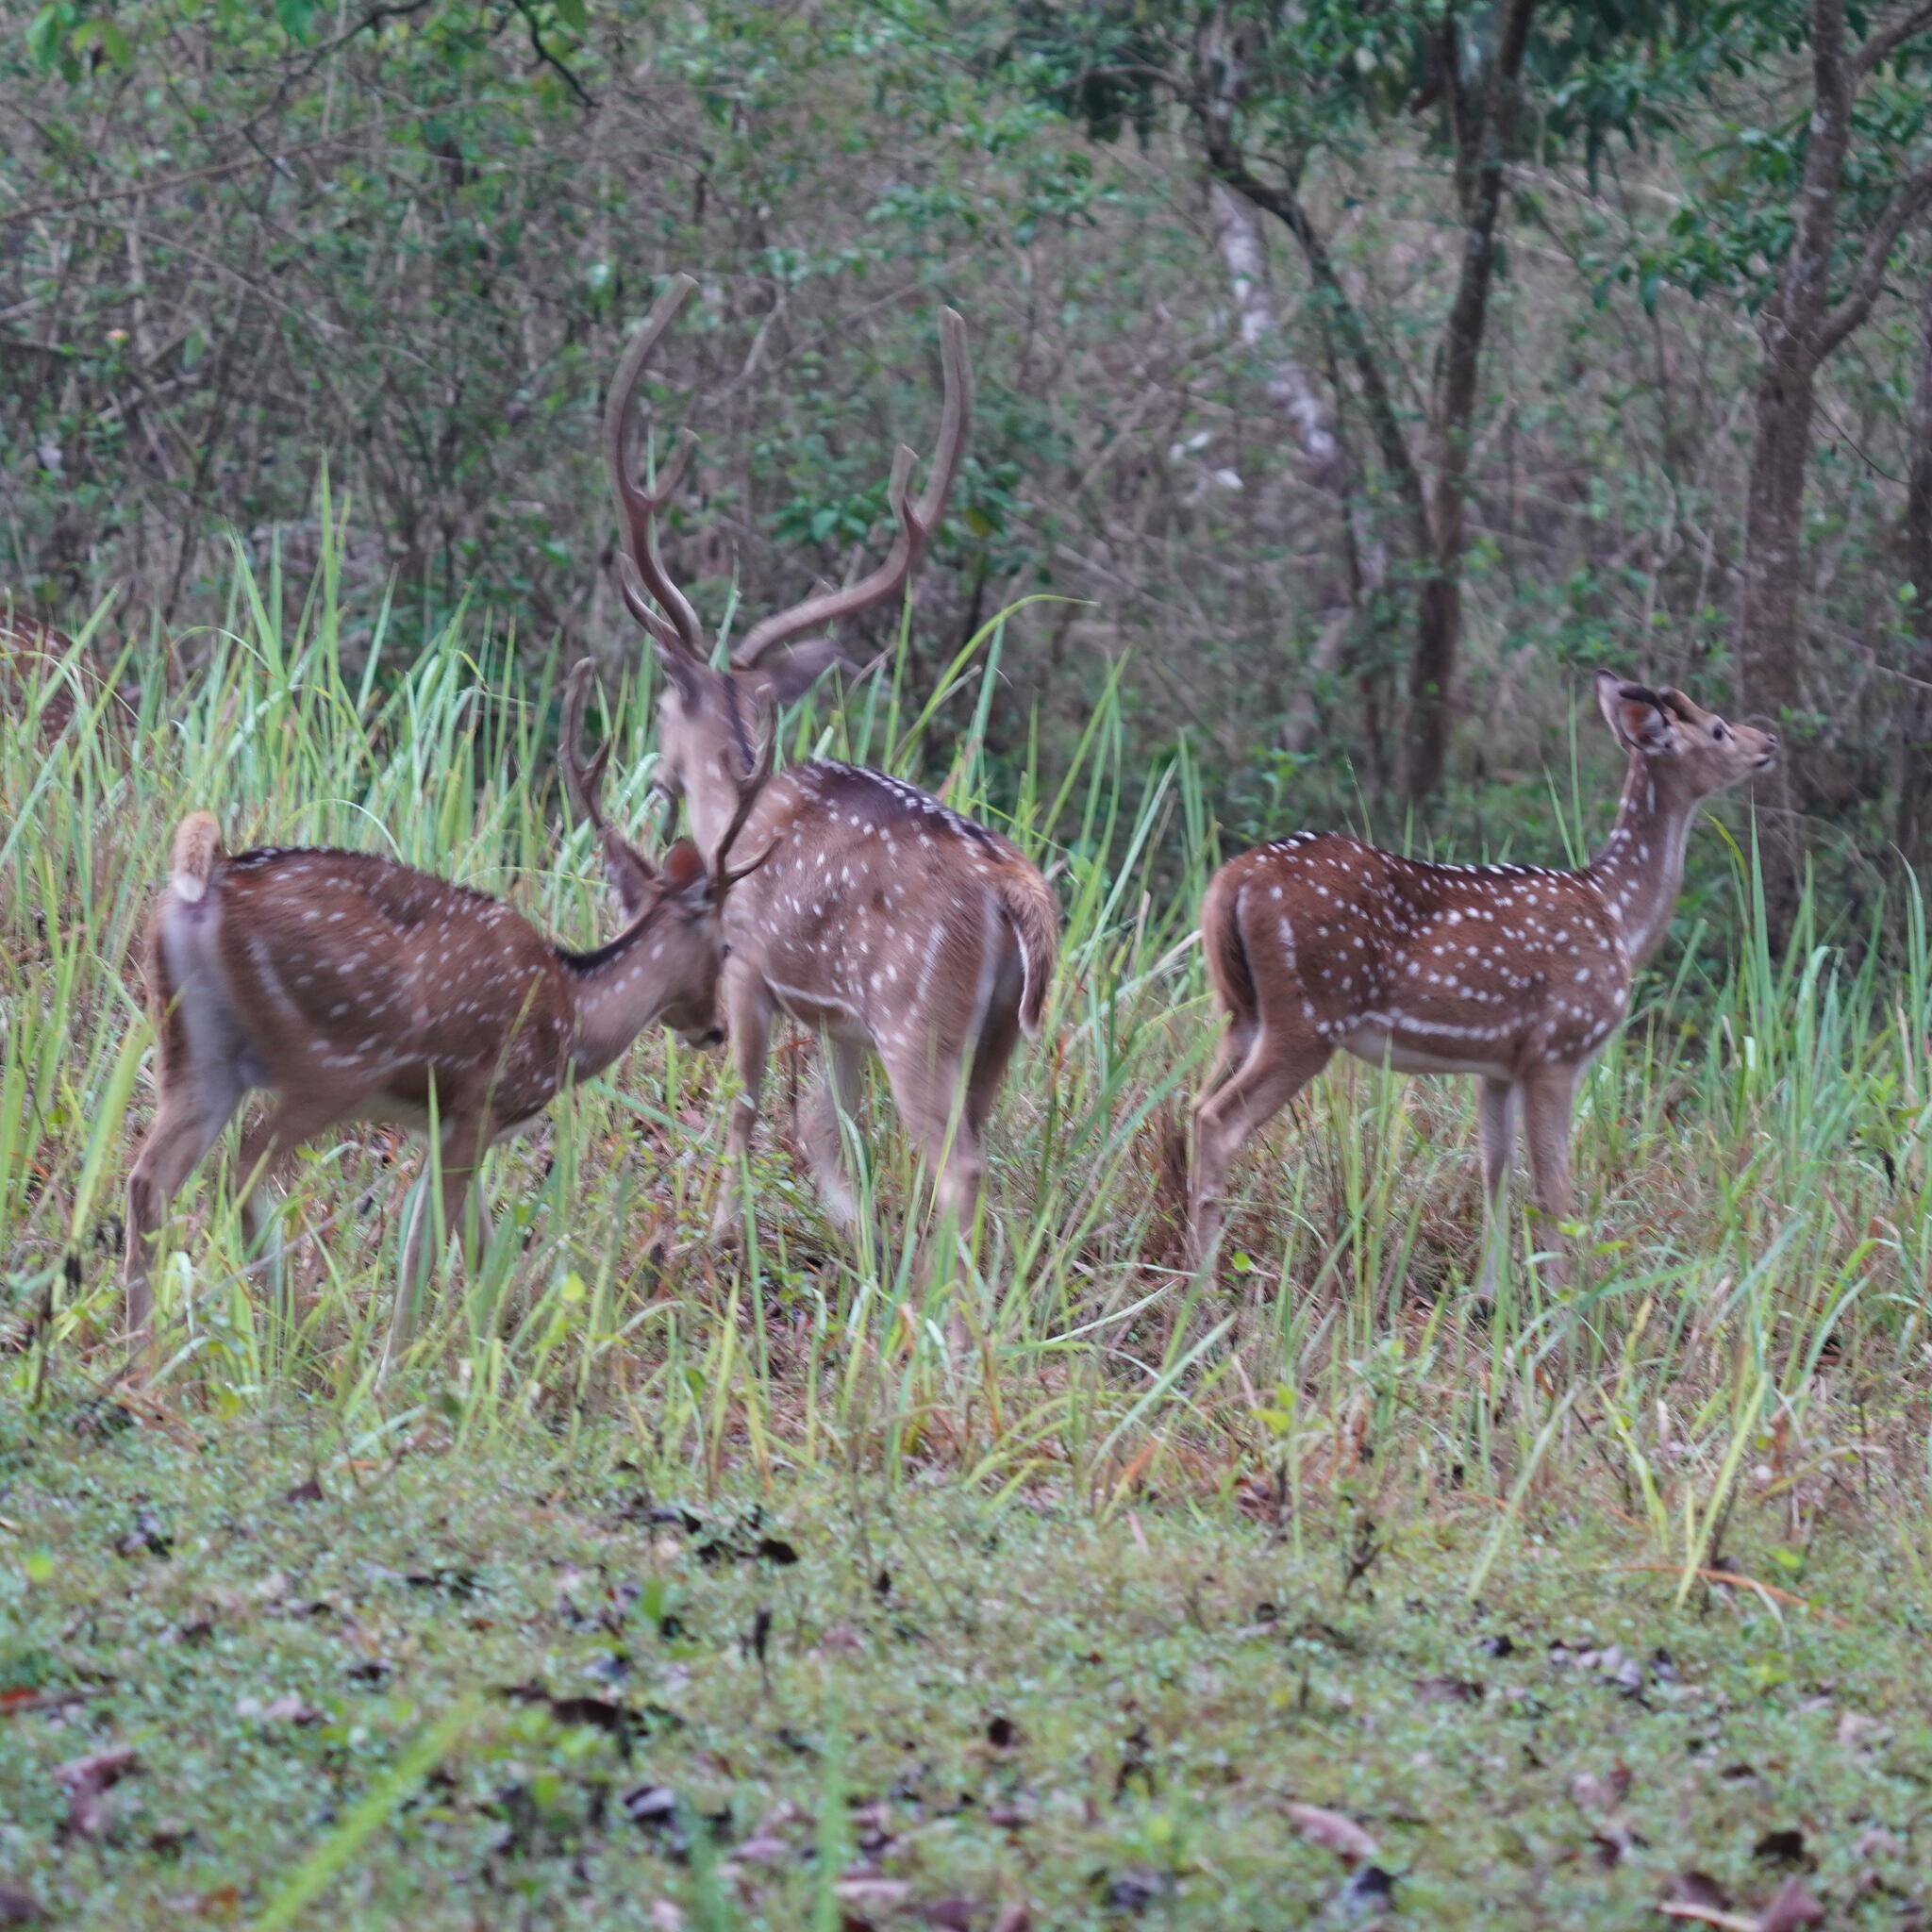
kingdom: Animalia
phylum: Chordata
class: Mammalia
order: Artiodactyla
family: Cervidae
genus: Axis
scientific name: Axis axis
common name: Chital
